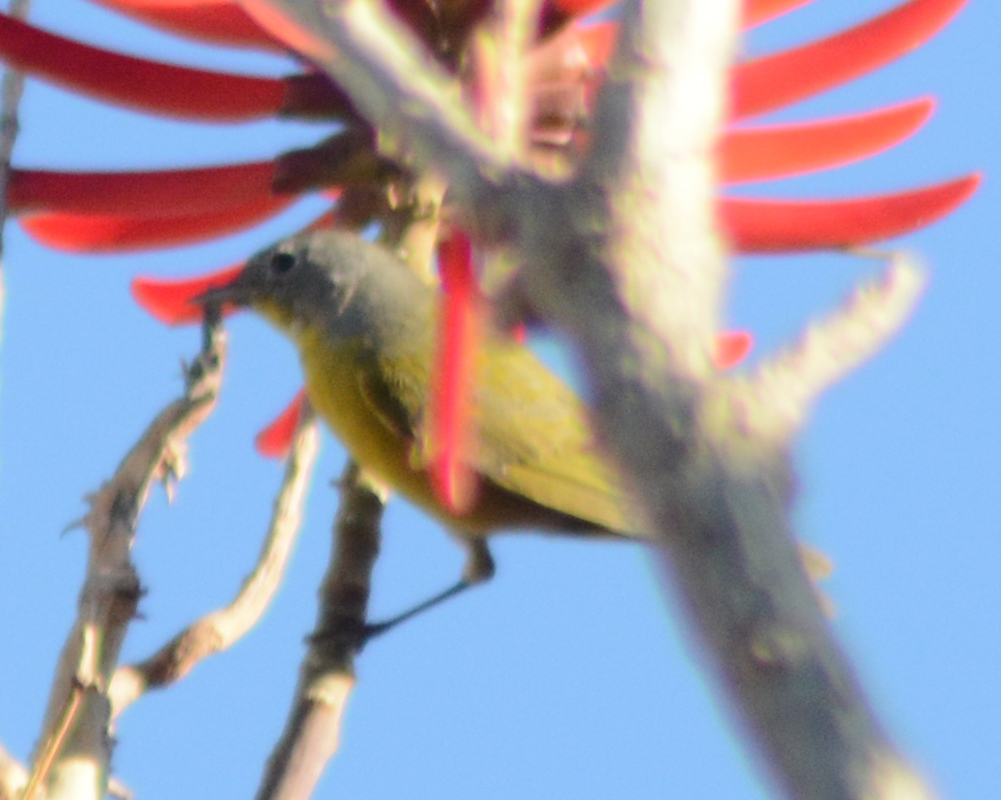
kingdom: Animalia
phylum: Chordata
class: Aves
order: Passeriformes
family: Parulidae
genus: Leiothlypis
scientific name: Leiothlypis ruficapilla
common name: Nashville warbler
